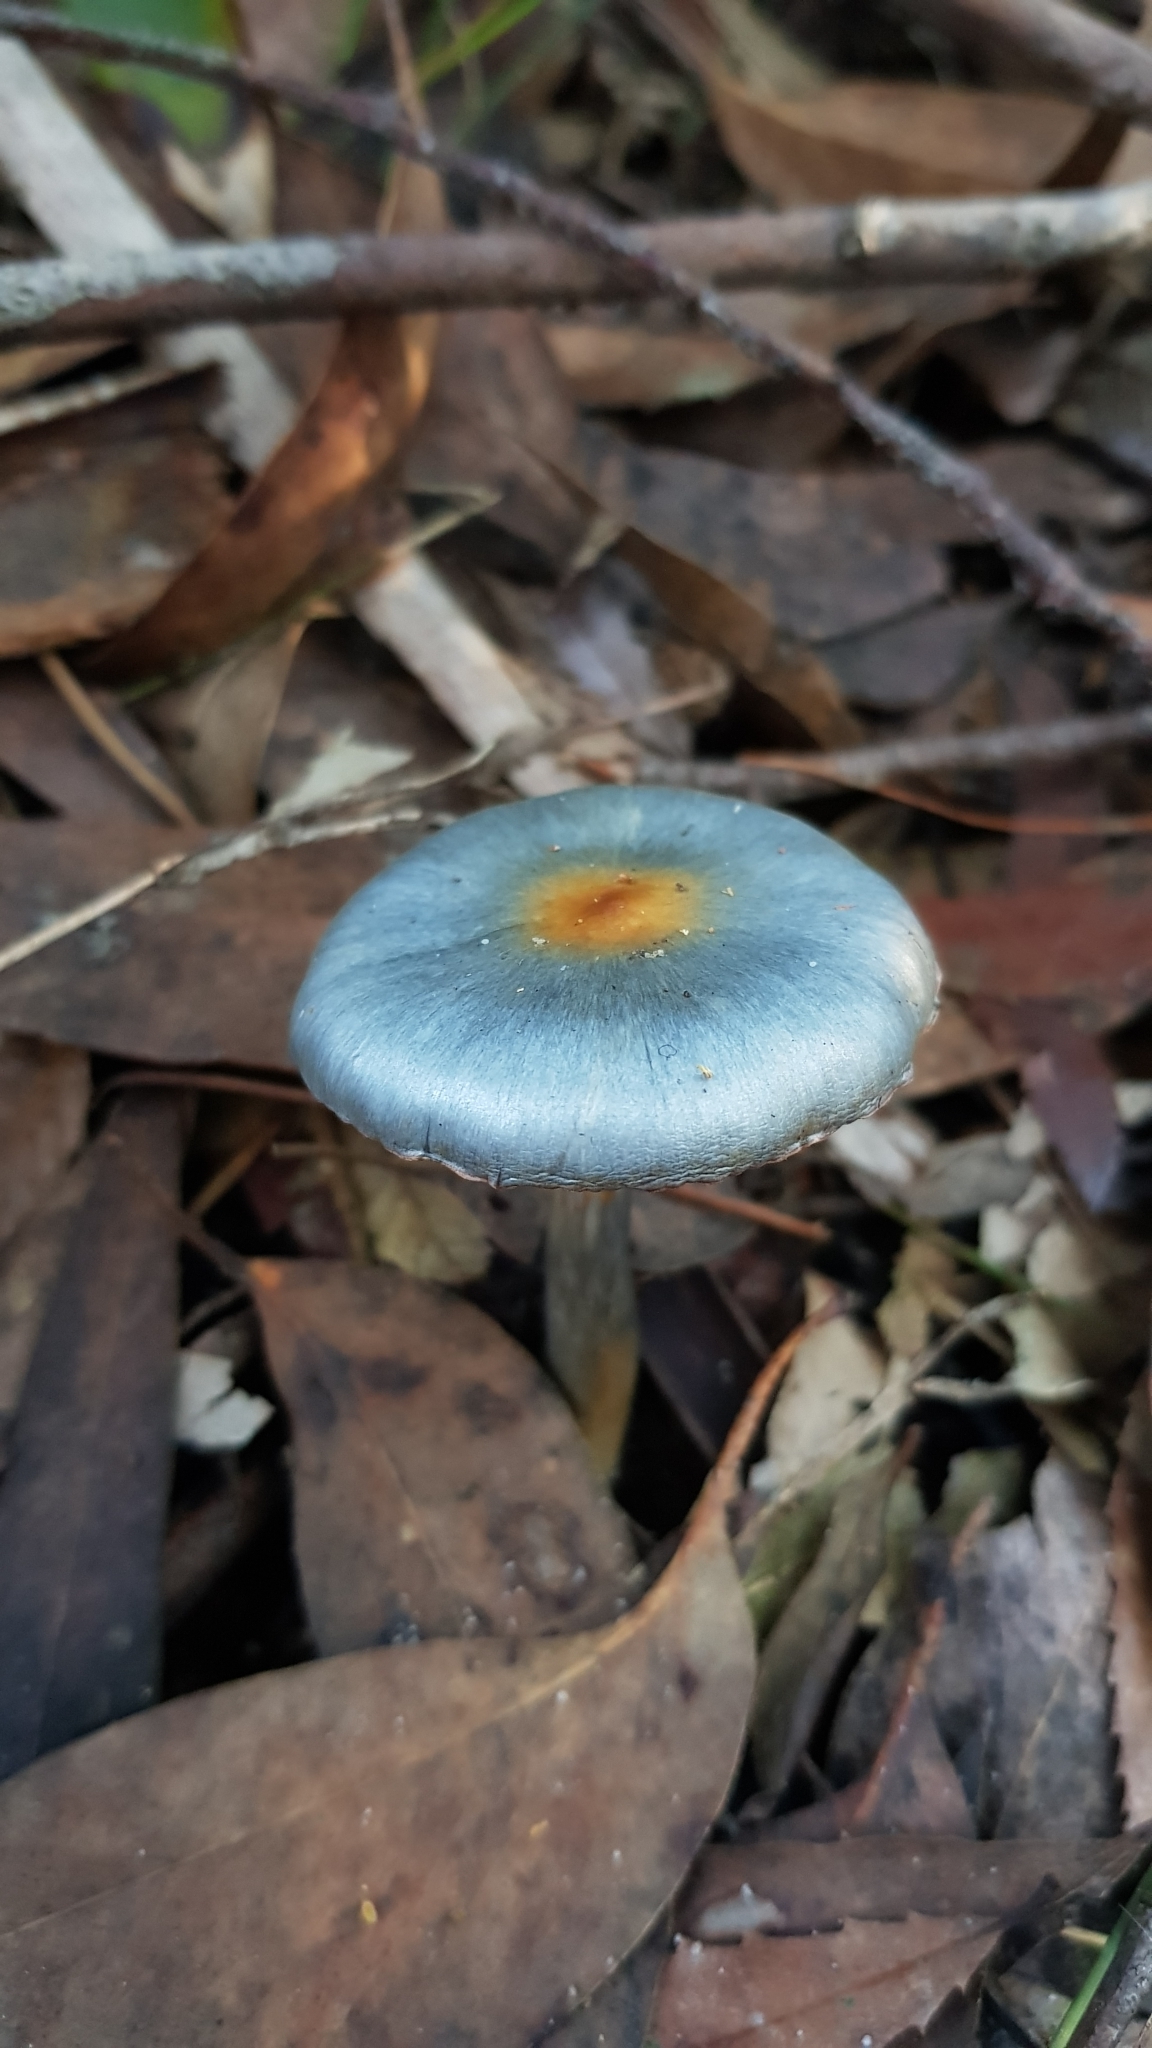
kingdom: Fungi
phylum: Basidiomycota
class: Agaricomycetes
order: Agaricales
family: Cortinariaceae
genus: Cortinarius
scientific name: Cortinarius rotundisporus
